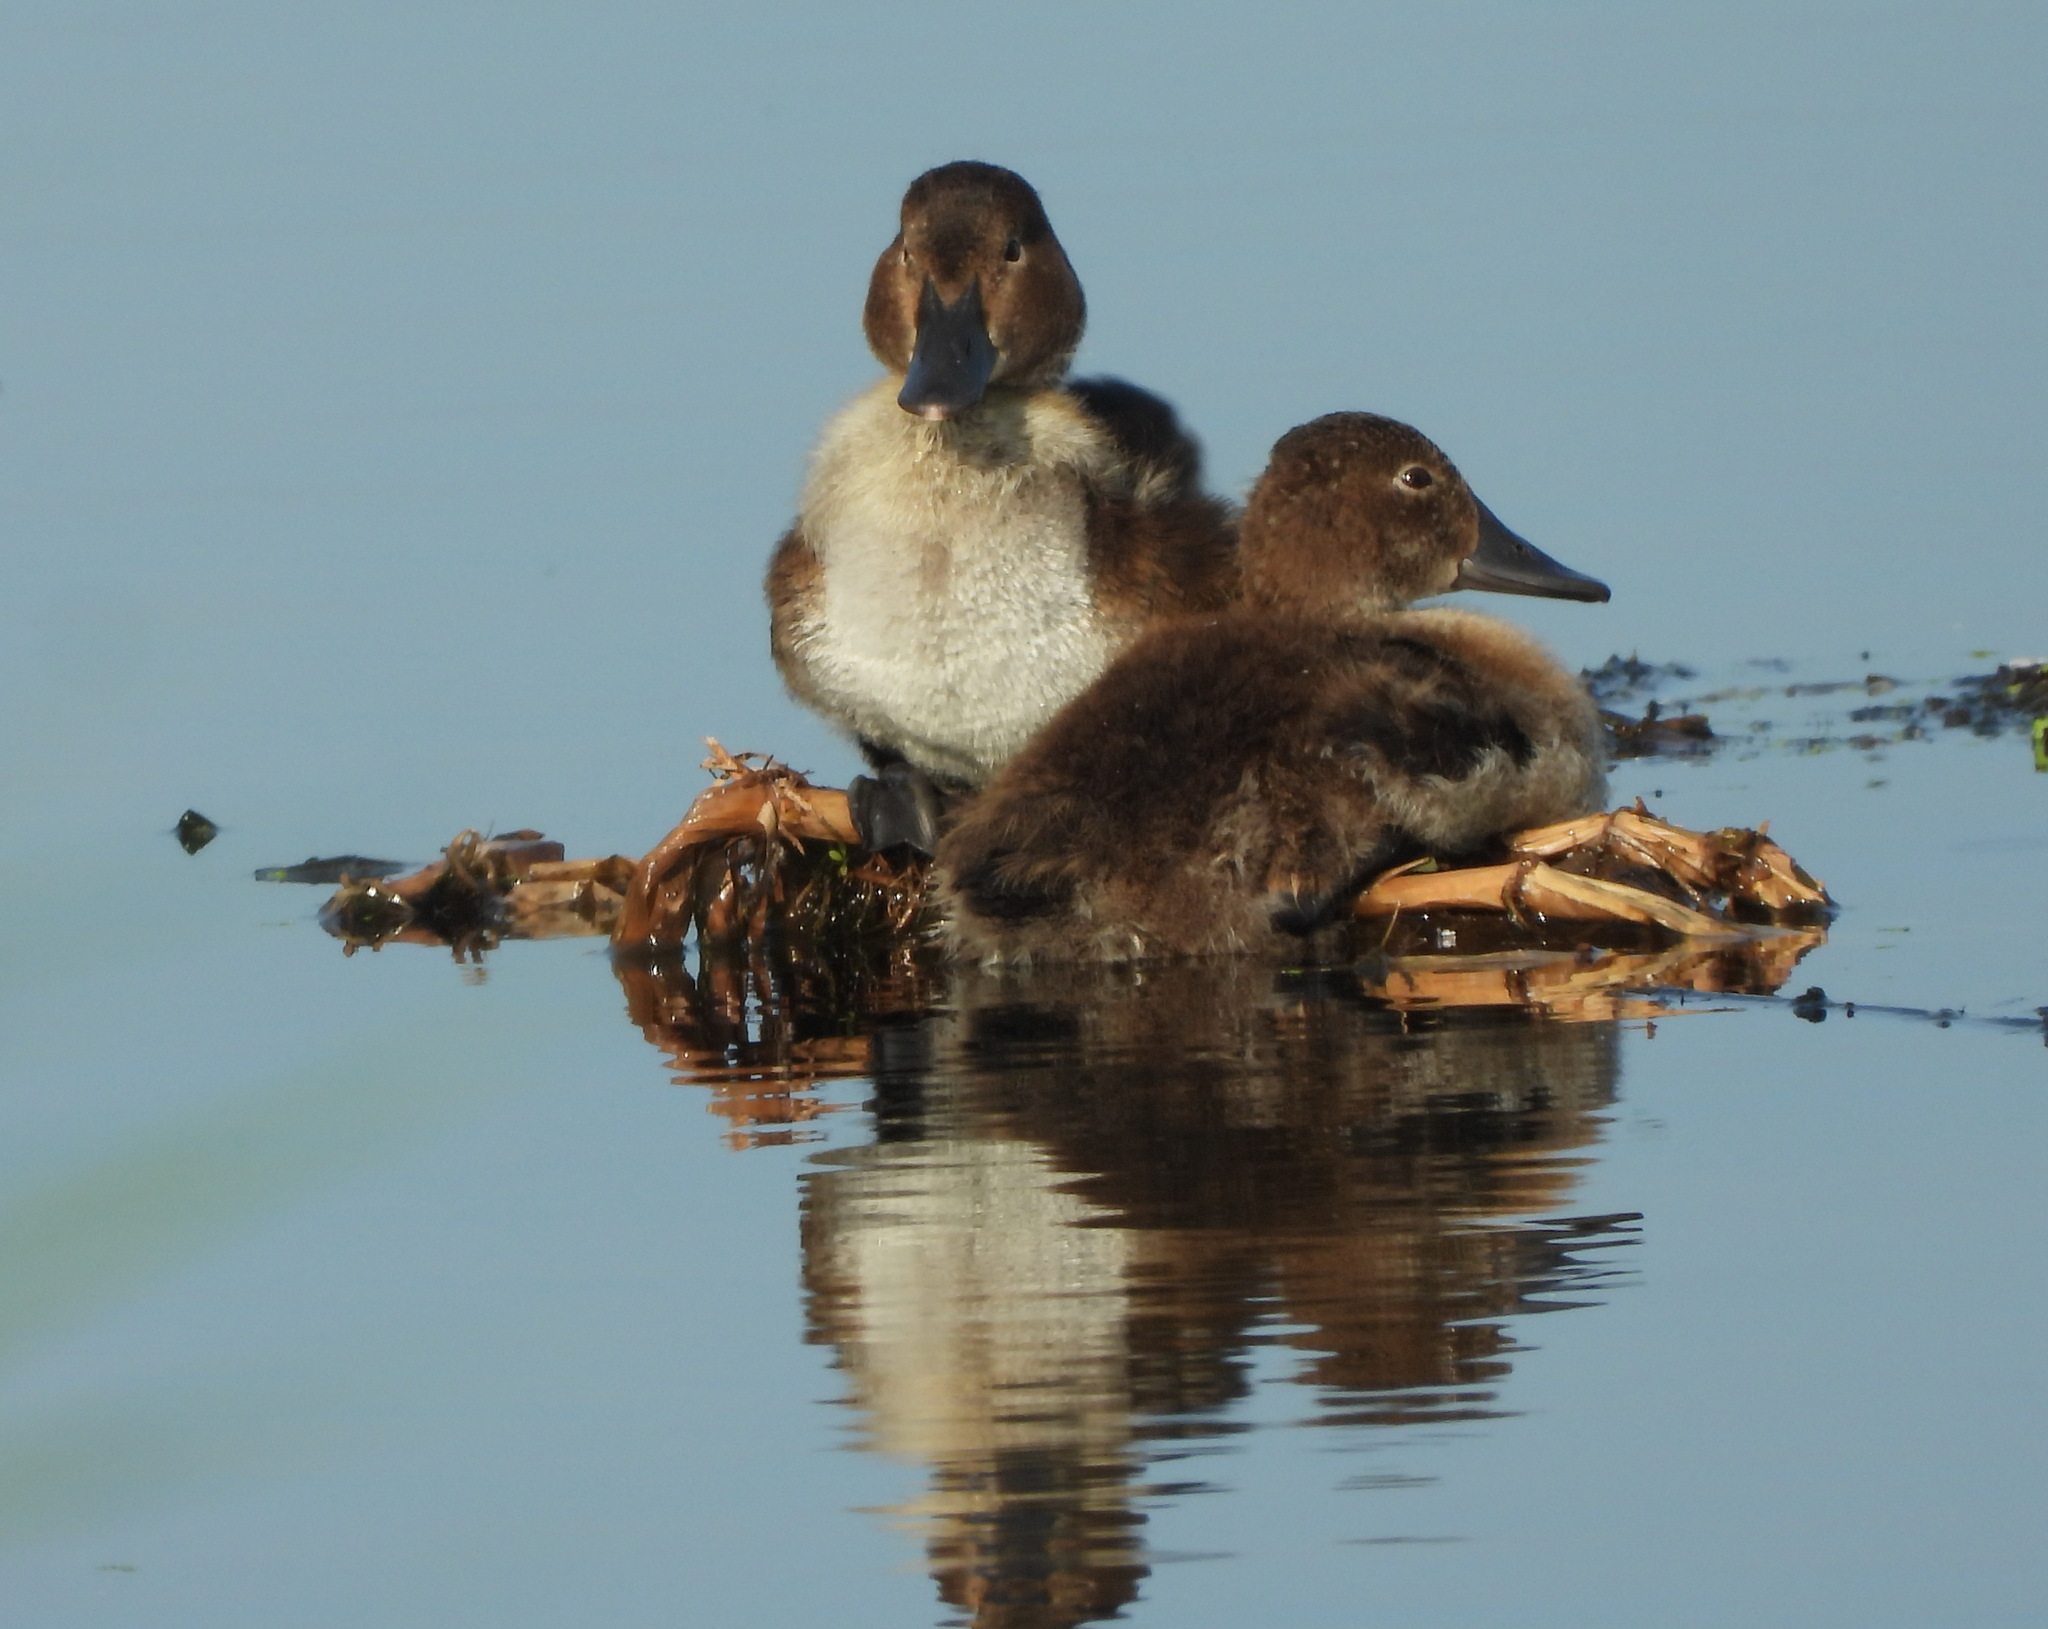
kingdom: Animalia
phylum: Chordata
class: Aves
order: Anseriformes
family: Anatidae
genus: Aythya
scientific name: Aythya ferina
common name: Common pochard
